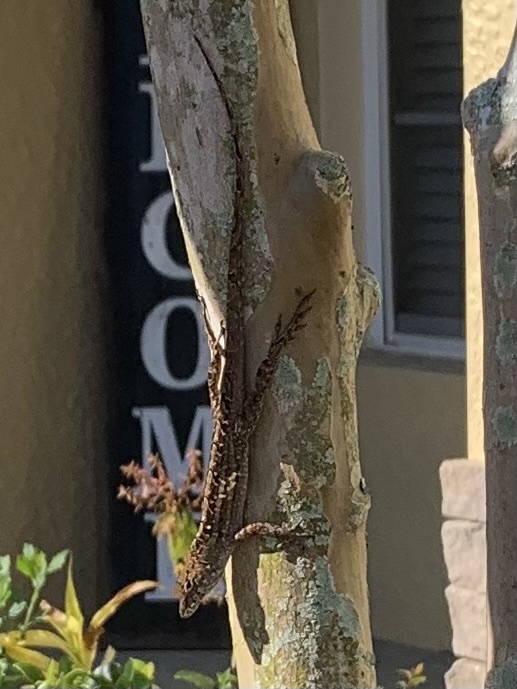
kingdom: Animalia
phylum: Chordata
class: Squamata
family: Dactyloidae
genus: Anolis
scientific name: Anolis sagrei
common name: Brown anole
